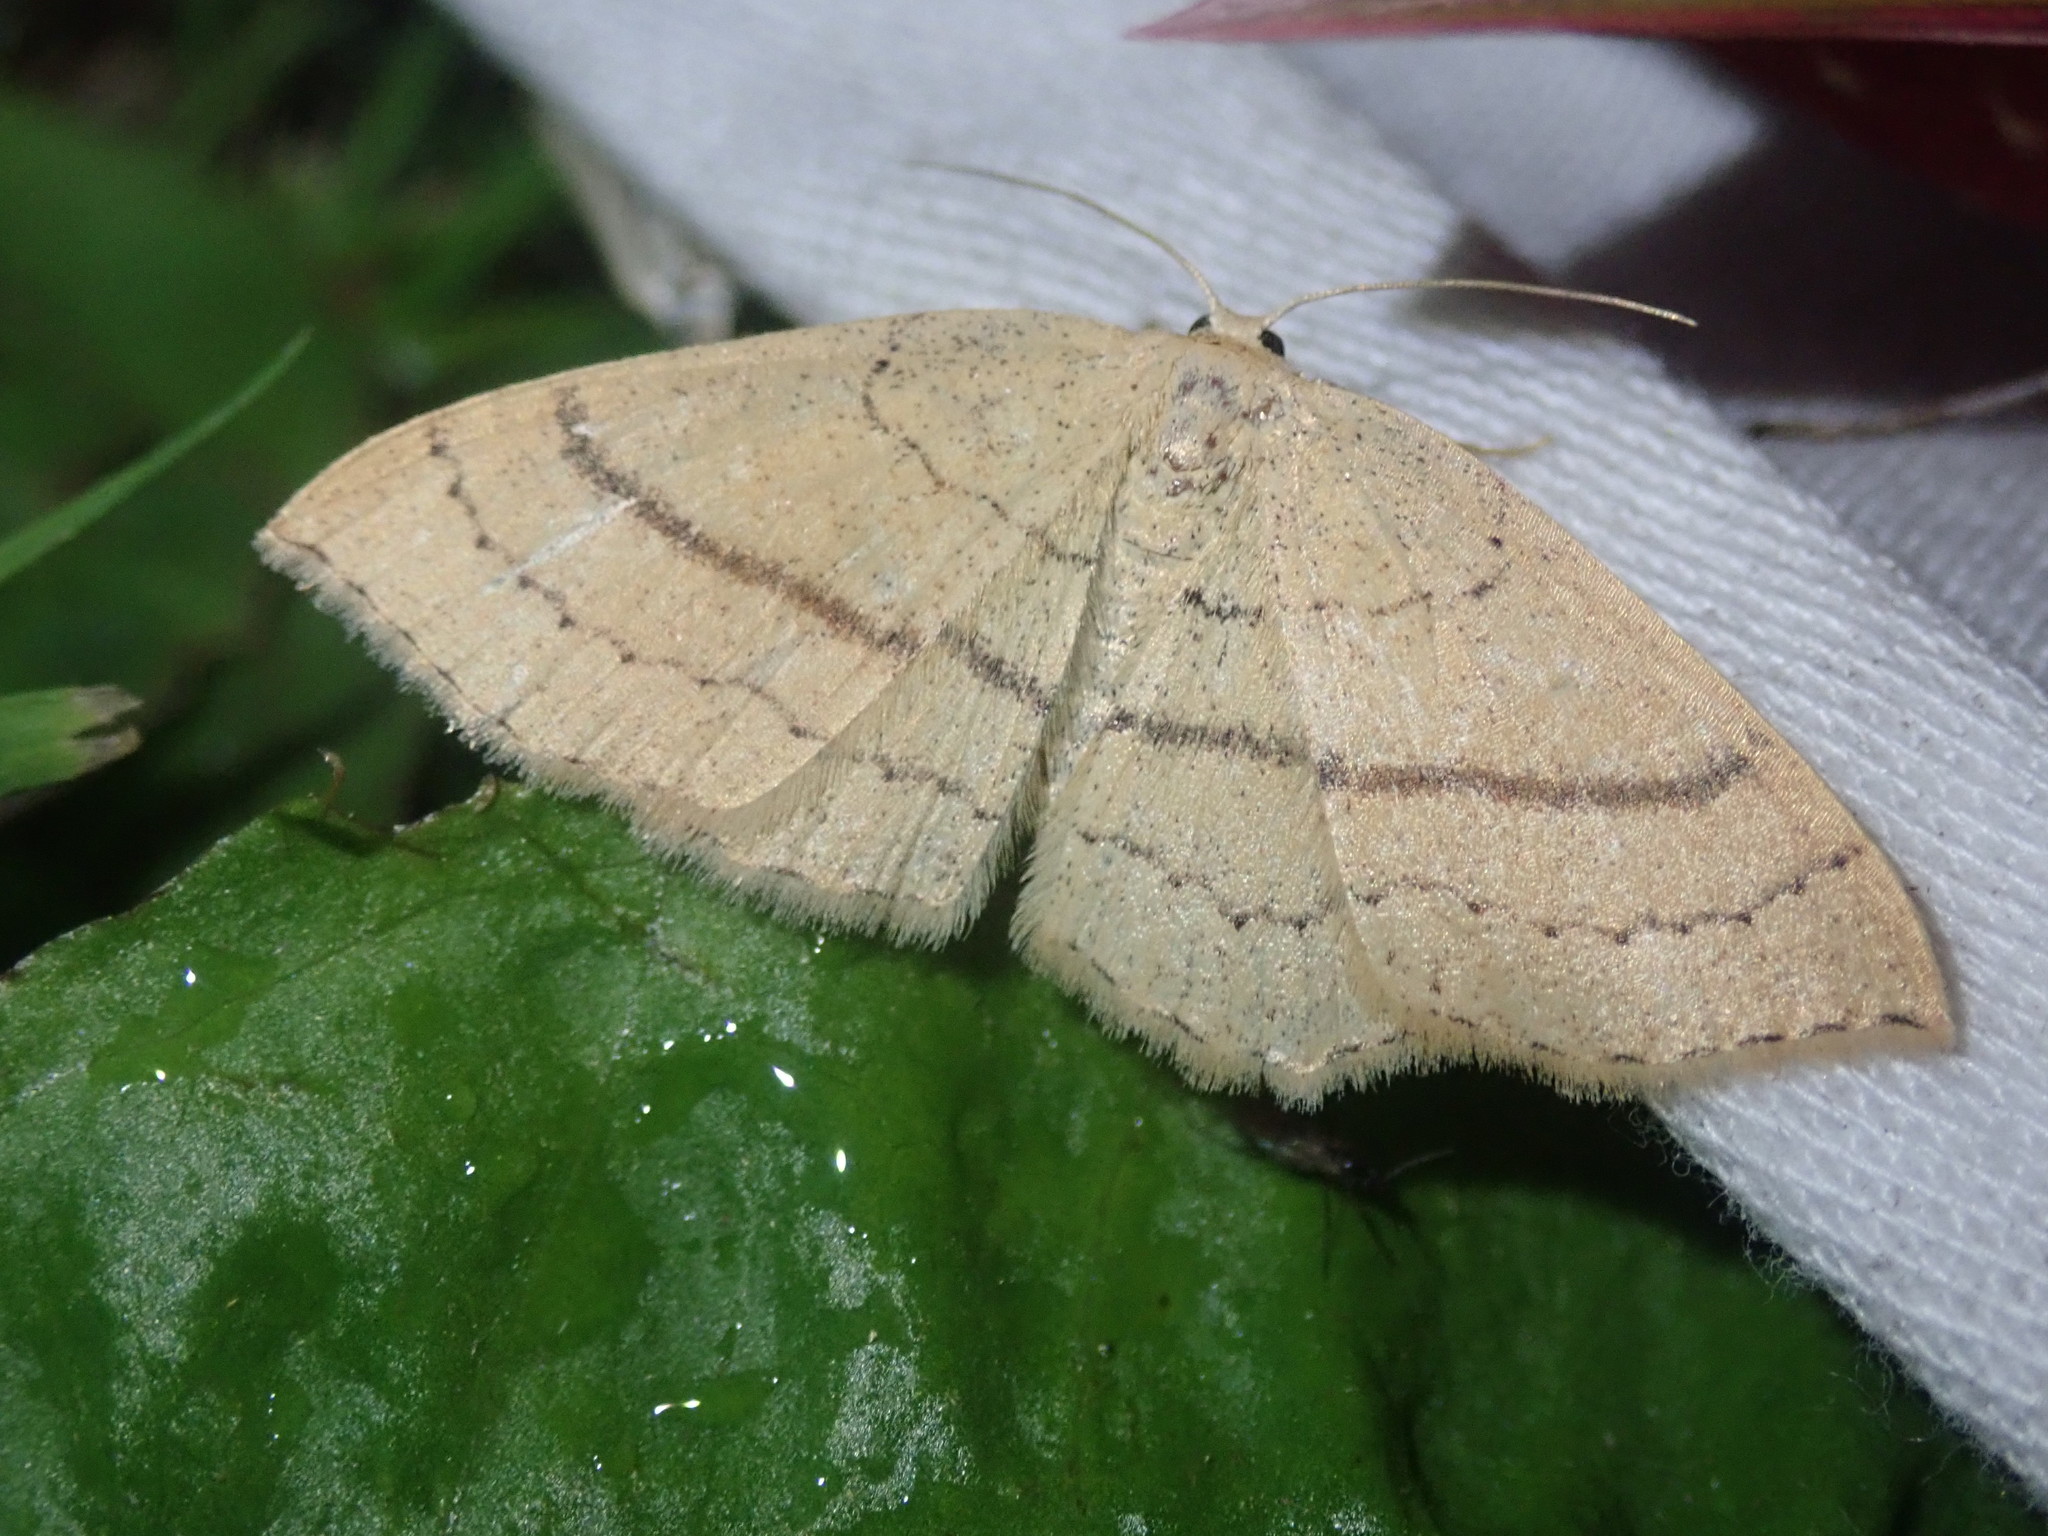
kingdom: Animalia
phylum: Arthropoda
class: Insecta
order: Lepidoptera
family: Geometridae
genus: Cyclophora
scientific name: Cyclophora linearia
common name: Clay triple-lines
